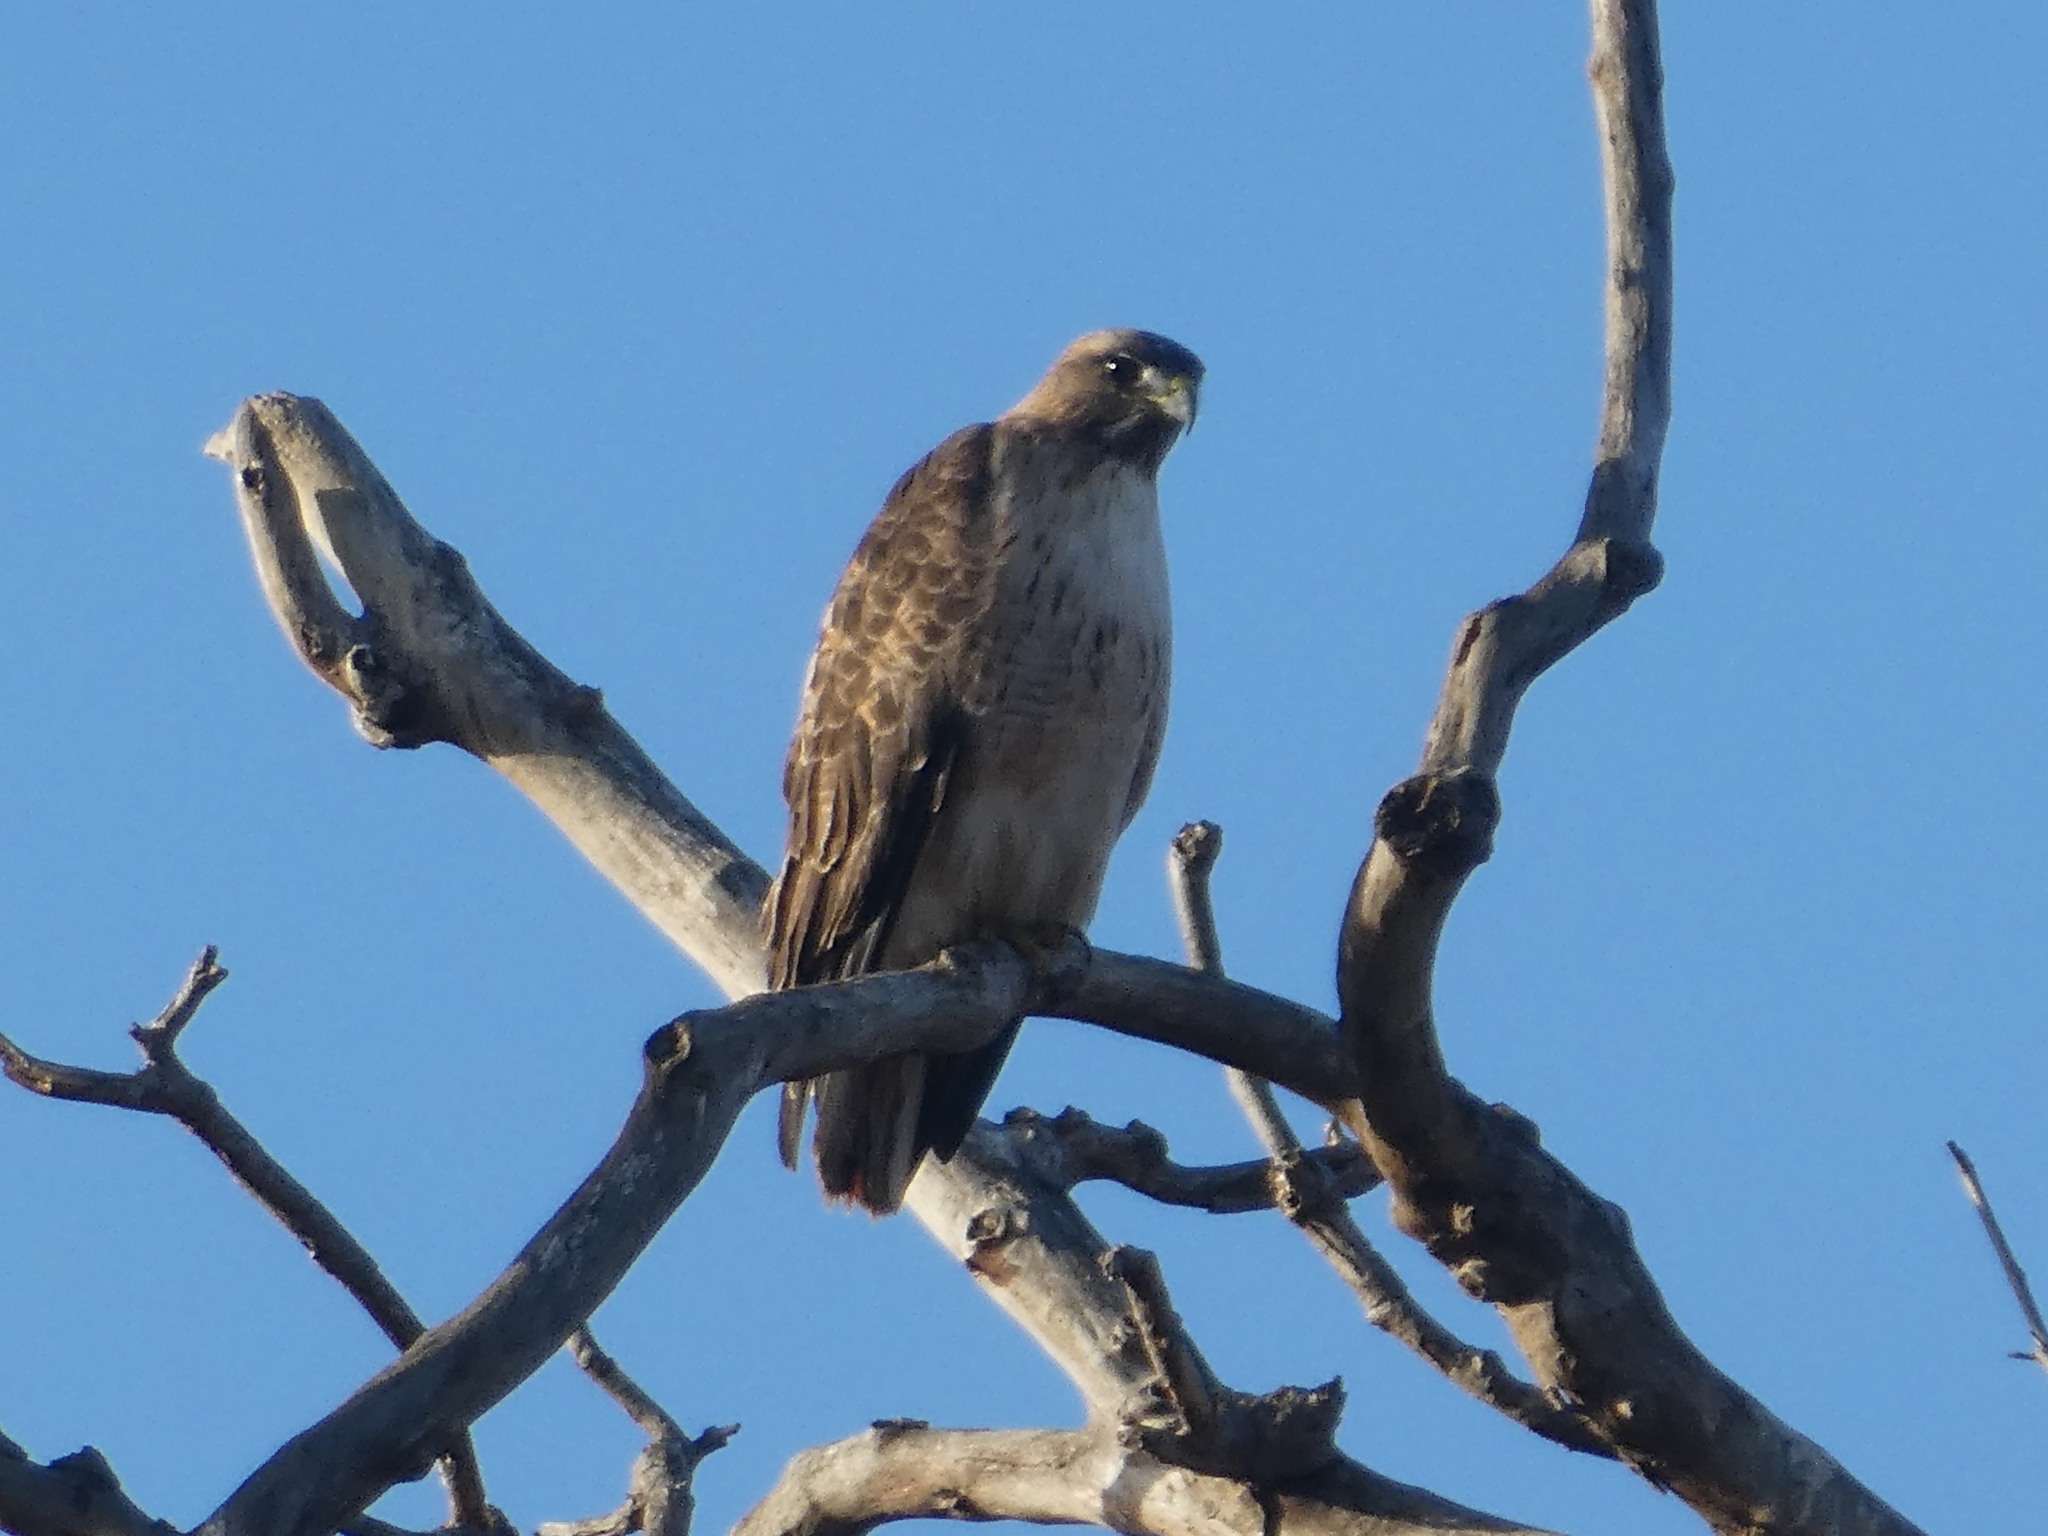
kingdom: Animalia
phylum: Chordata
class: Aves
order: Accipitriformes
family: Accipitridae
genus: Buteo
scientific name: Buteo jamaicensis
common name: Red-tailed hawk
